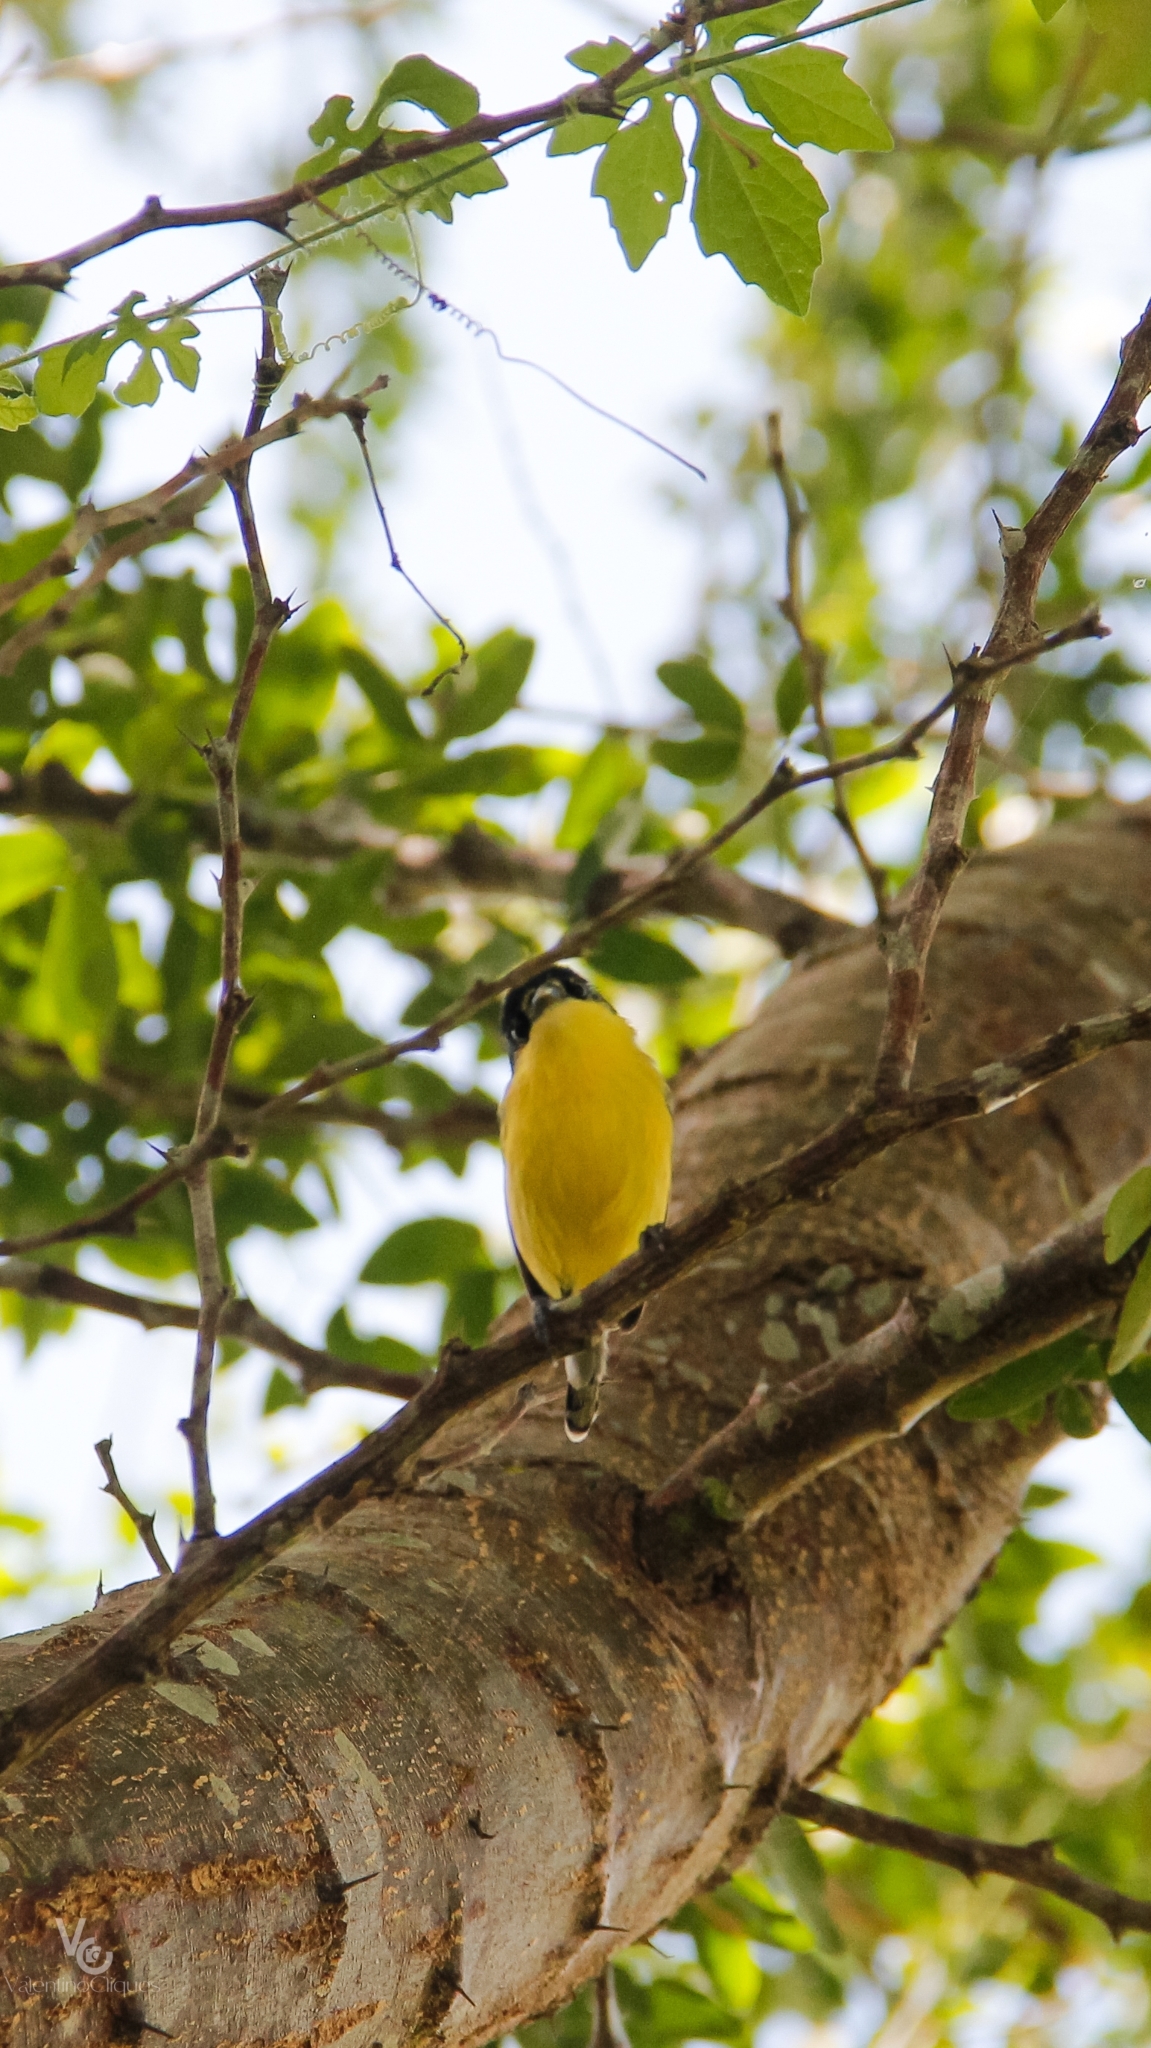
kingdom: Animalia
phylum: Chordata
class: Aves
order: Passeriformes
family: Tyrannidae
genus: Todirostrum
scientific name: Todirostrum cinereum
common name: Common tody-flycatcher
